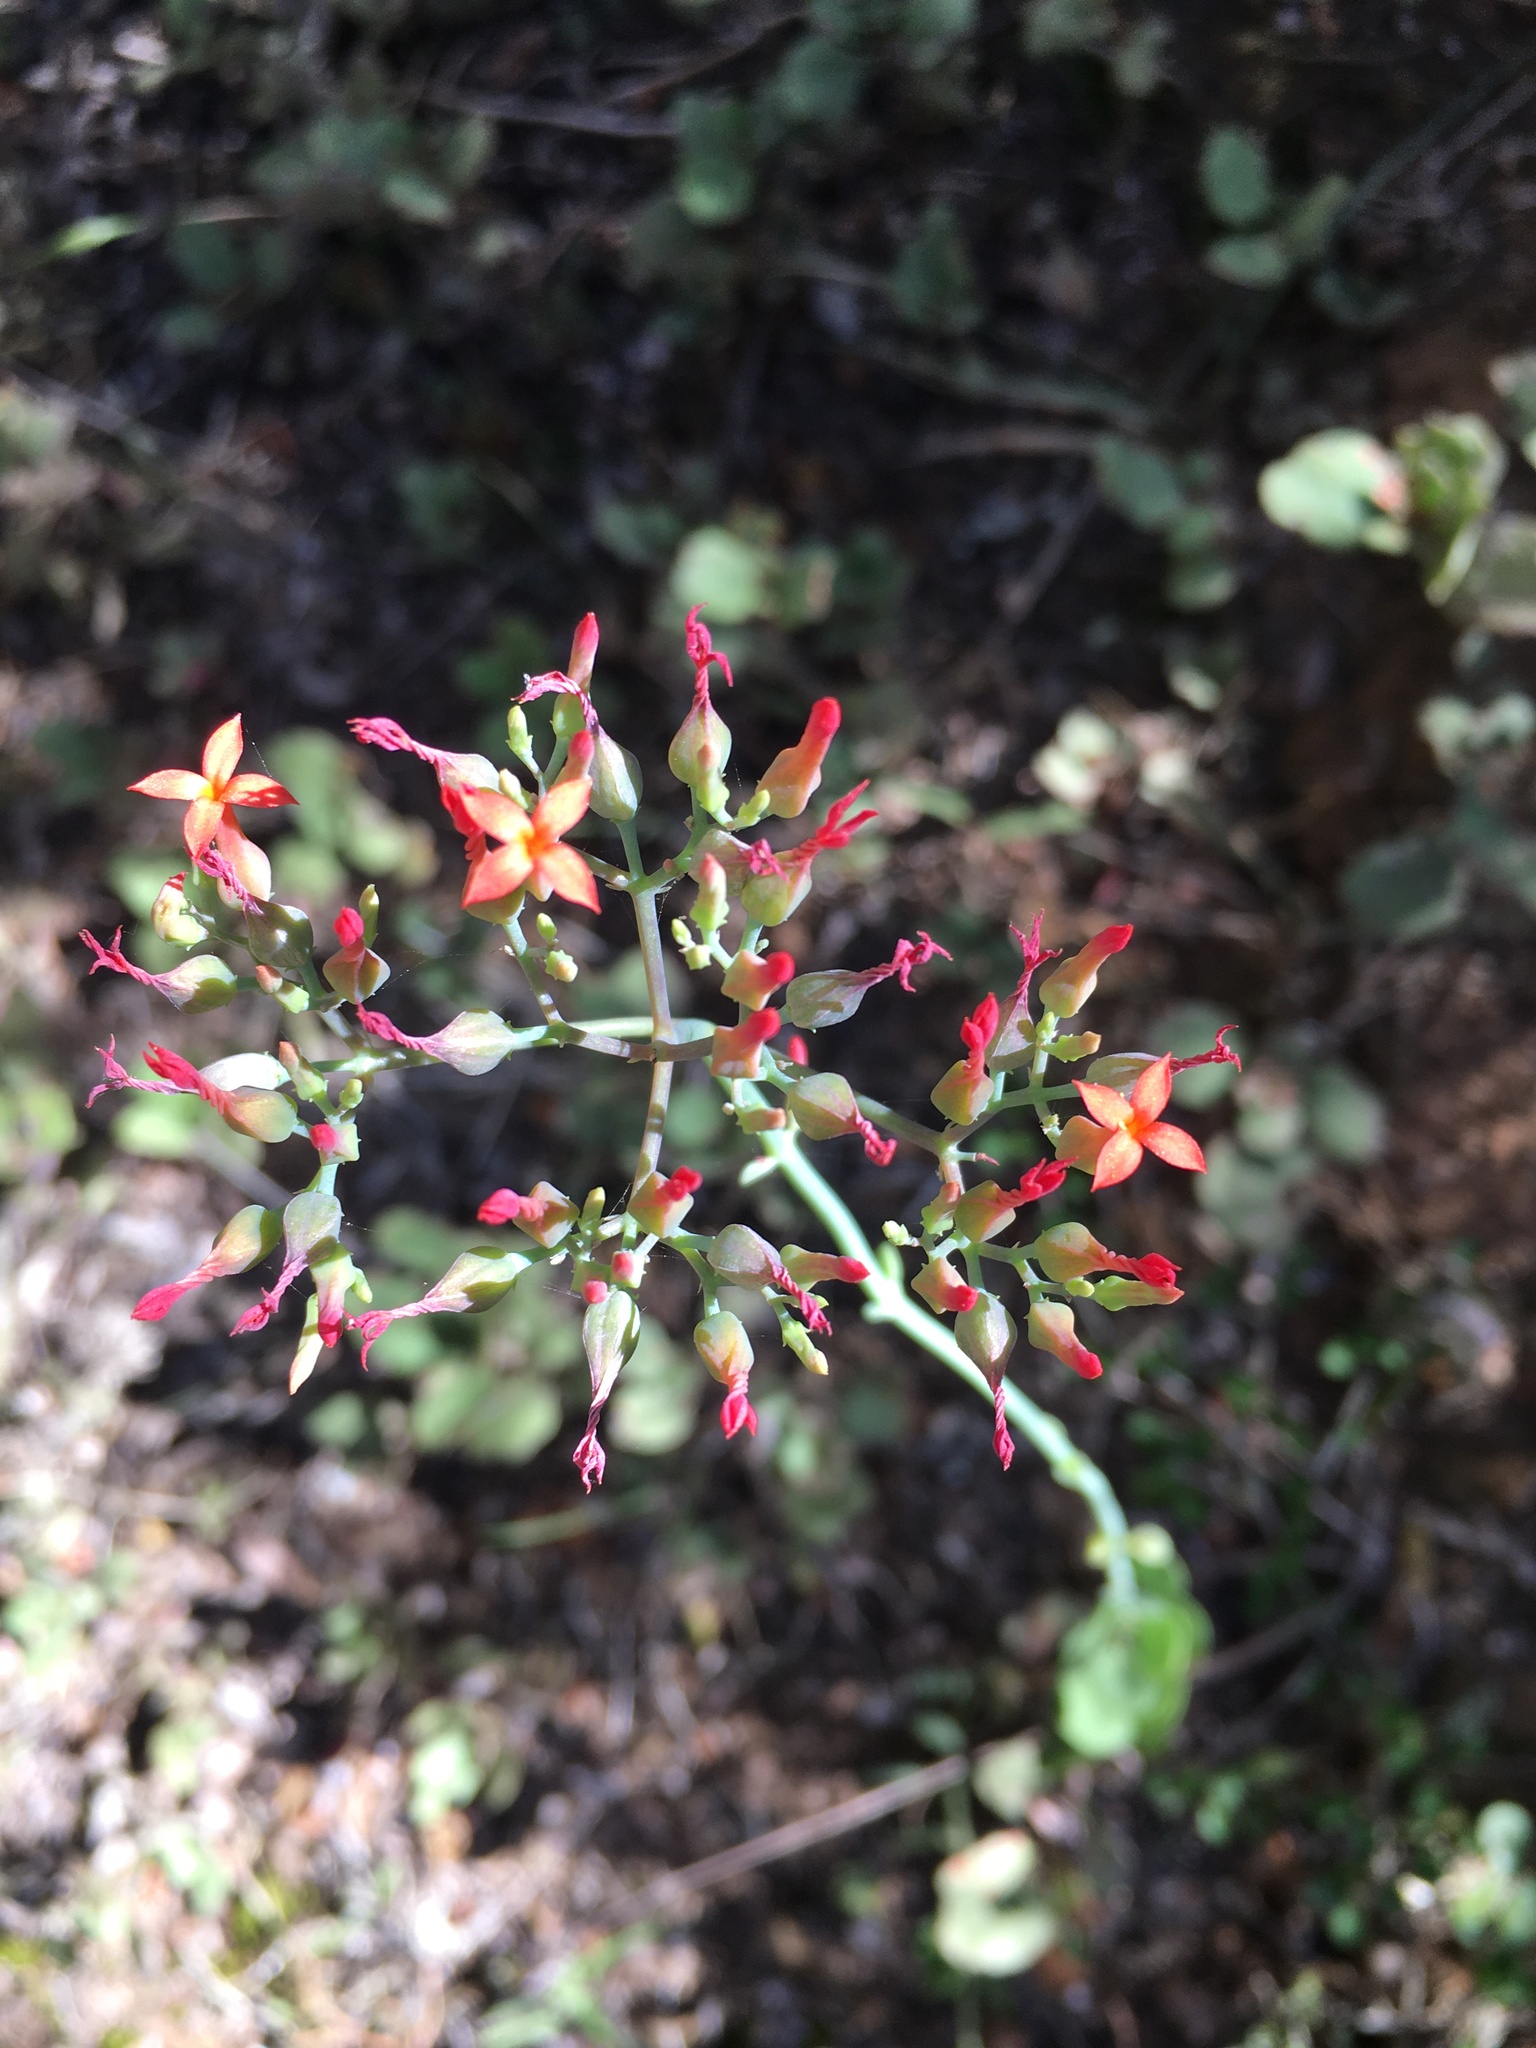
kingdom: Plantae
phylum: Tracheophyta
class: Magnoliopsida
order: Saxifragales
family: Crassulaceae
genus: Kalanchoe
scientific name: Kalanchoe rotundifolia
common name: Common kalanchoe
